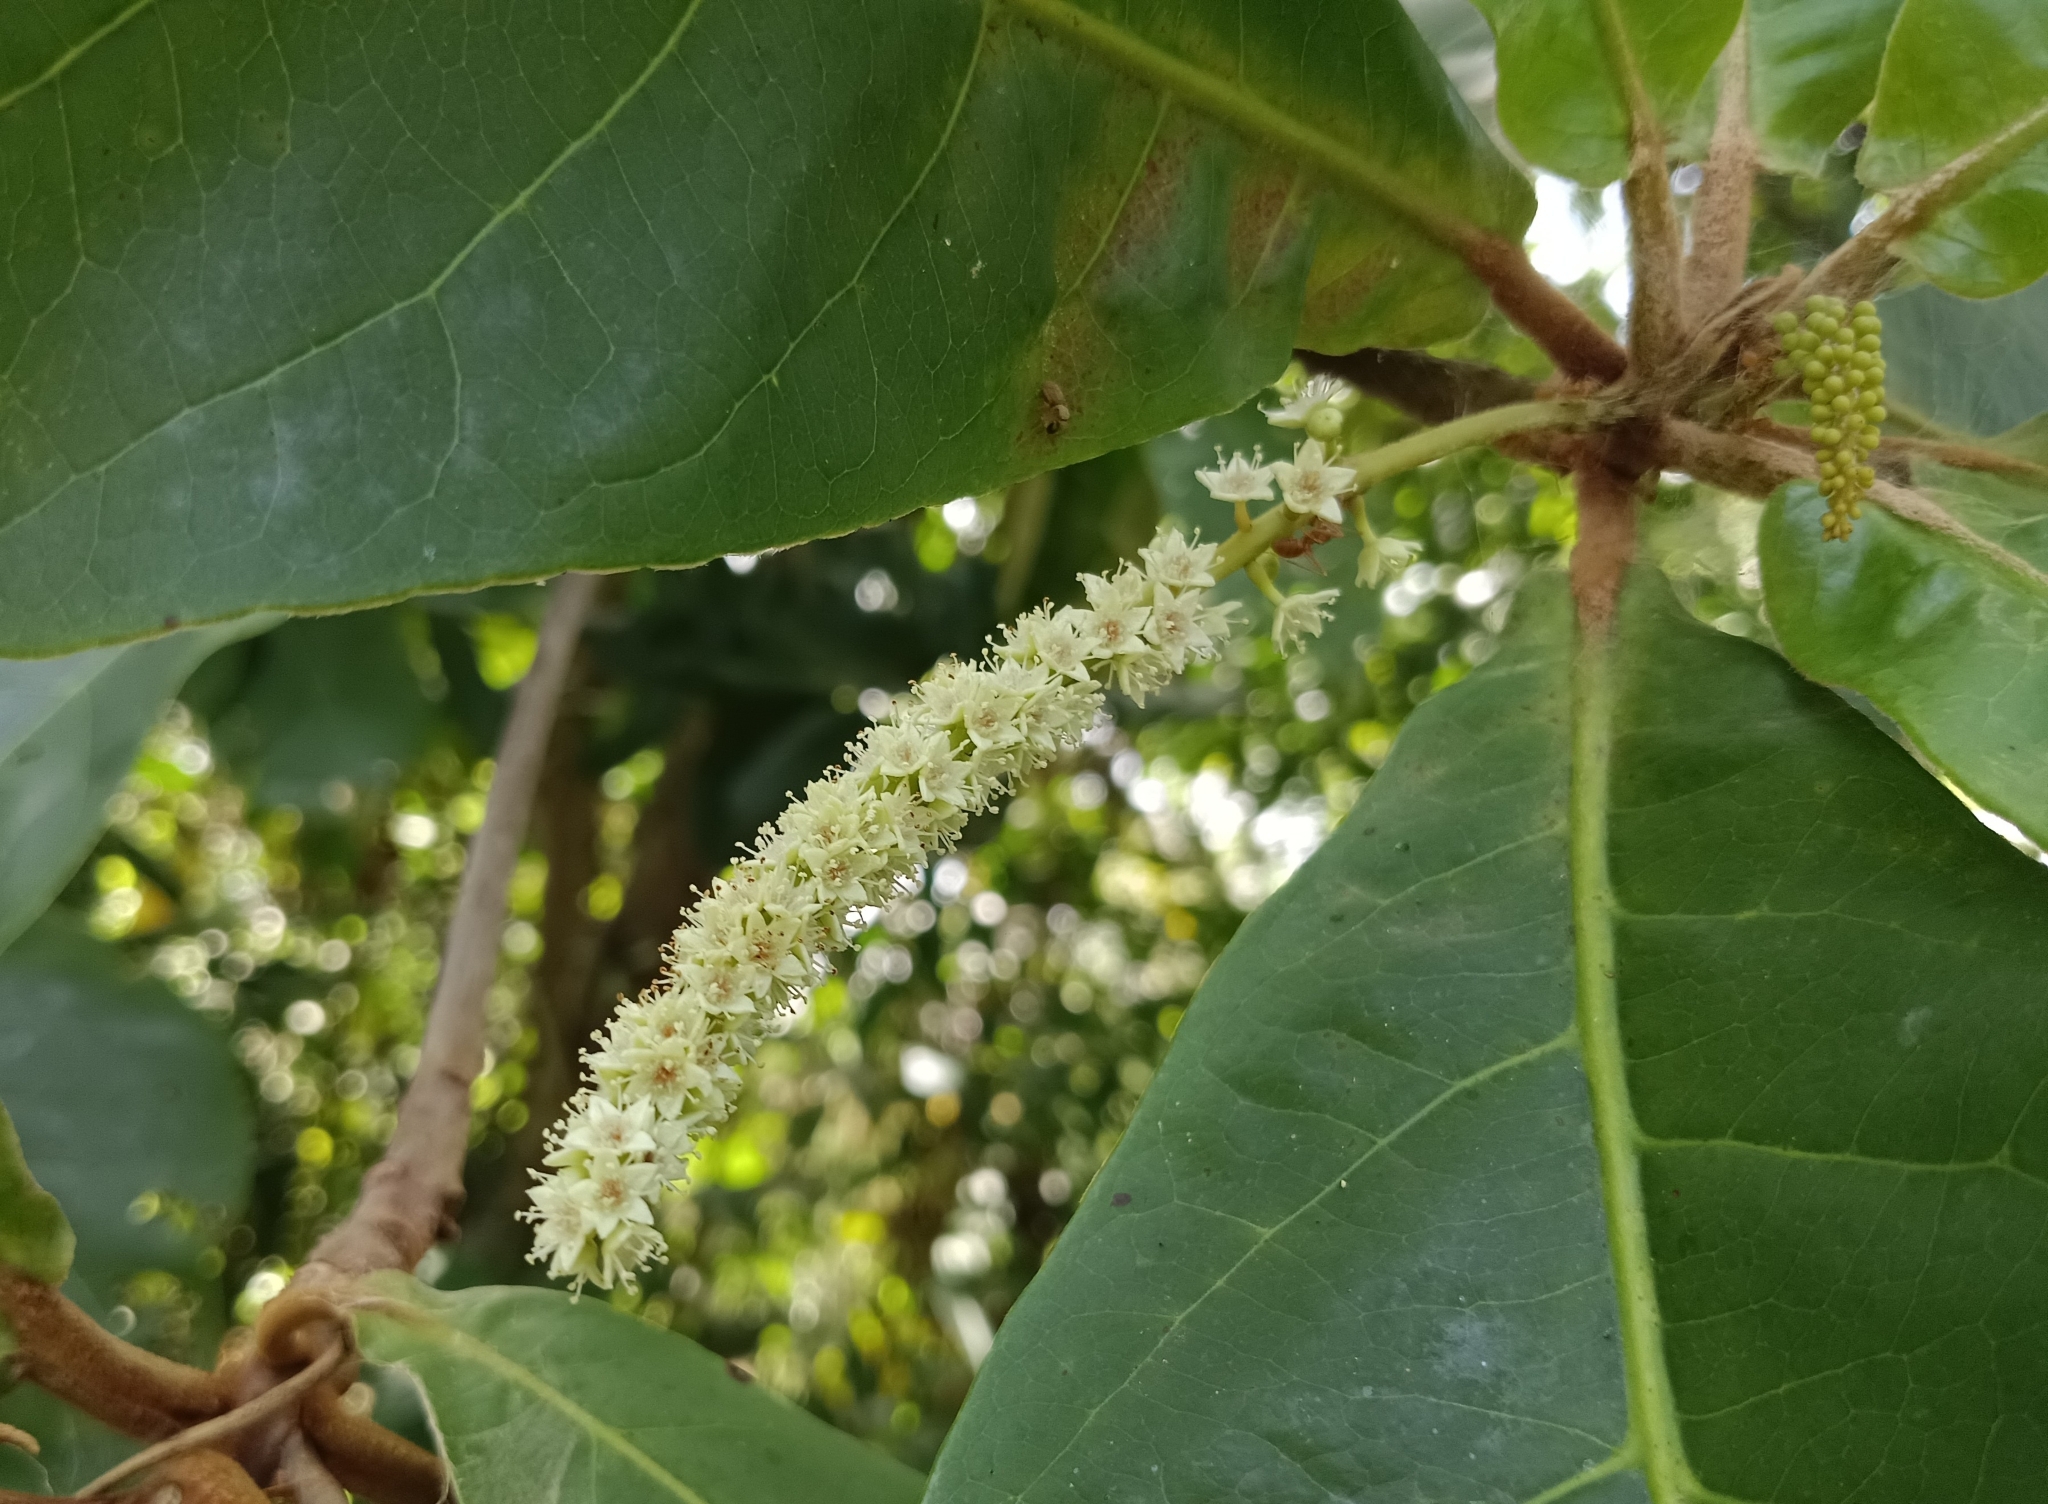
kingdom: Plantae
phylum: Tracheophyta
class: Magnoliopsida
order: Myrtales
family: Combretaceae
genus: Terminalia
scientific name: Terminalia catappa
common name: Tropical almond
